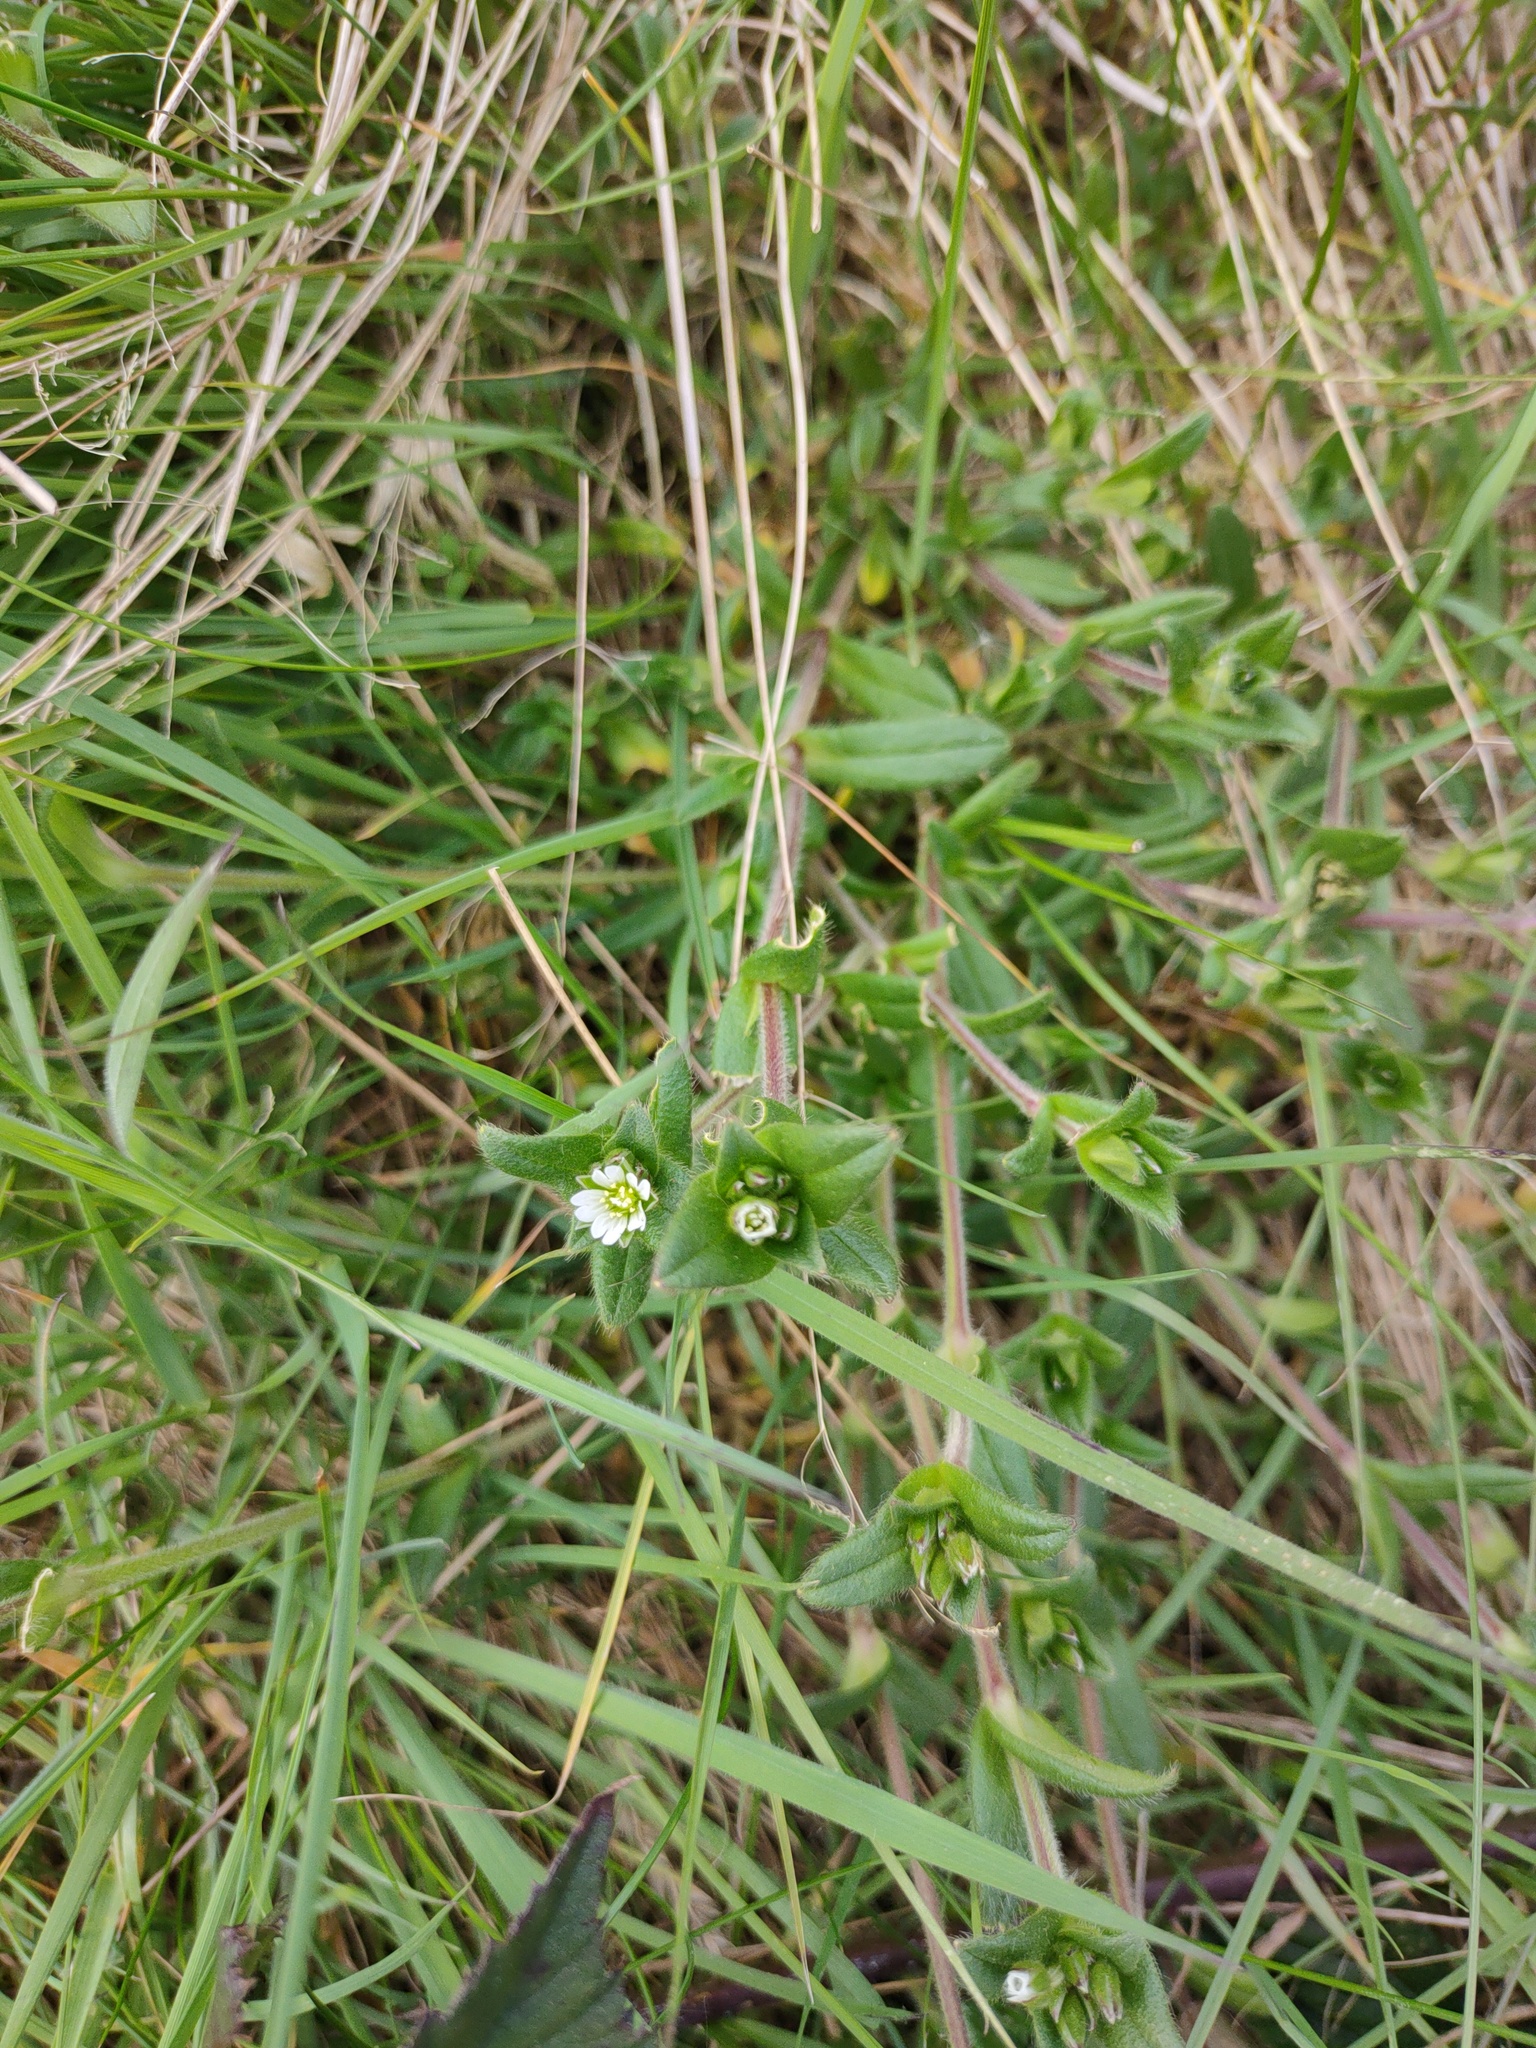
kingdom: Plantae
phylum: Tracheophyta
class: Magnoliopsida
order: Caryophyllales
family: Caryophyllaceae
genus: Cerastium
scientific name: Cerastium fontanum
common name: Common mouse-ear
